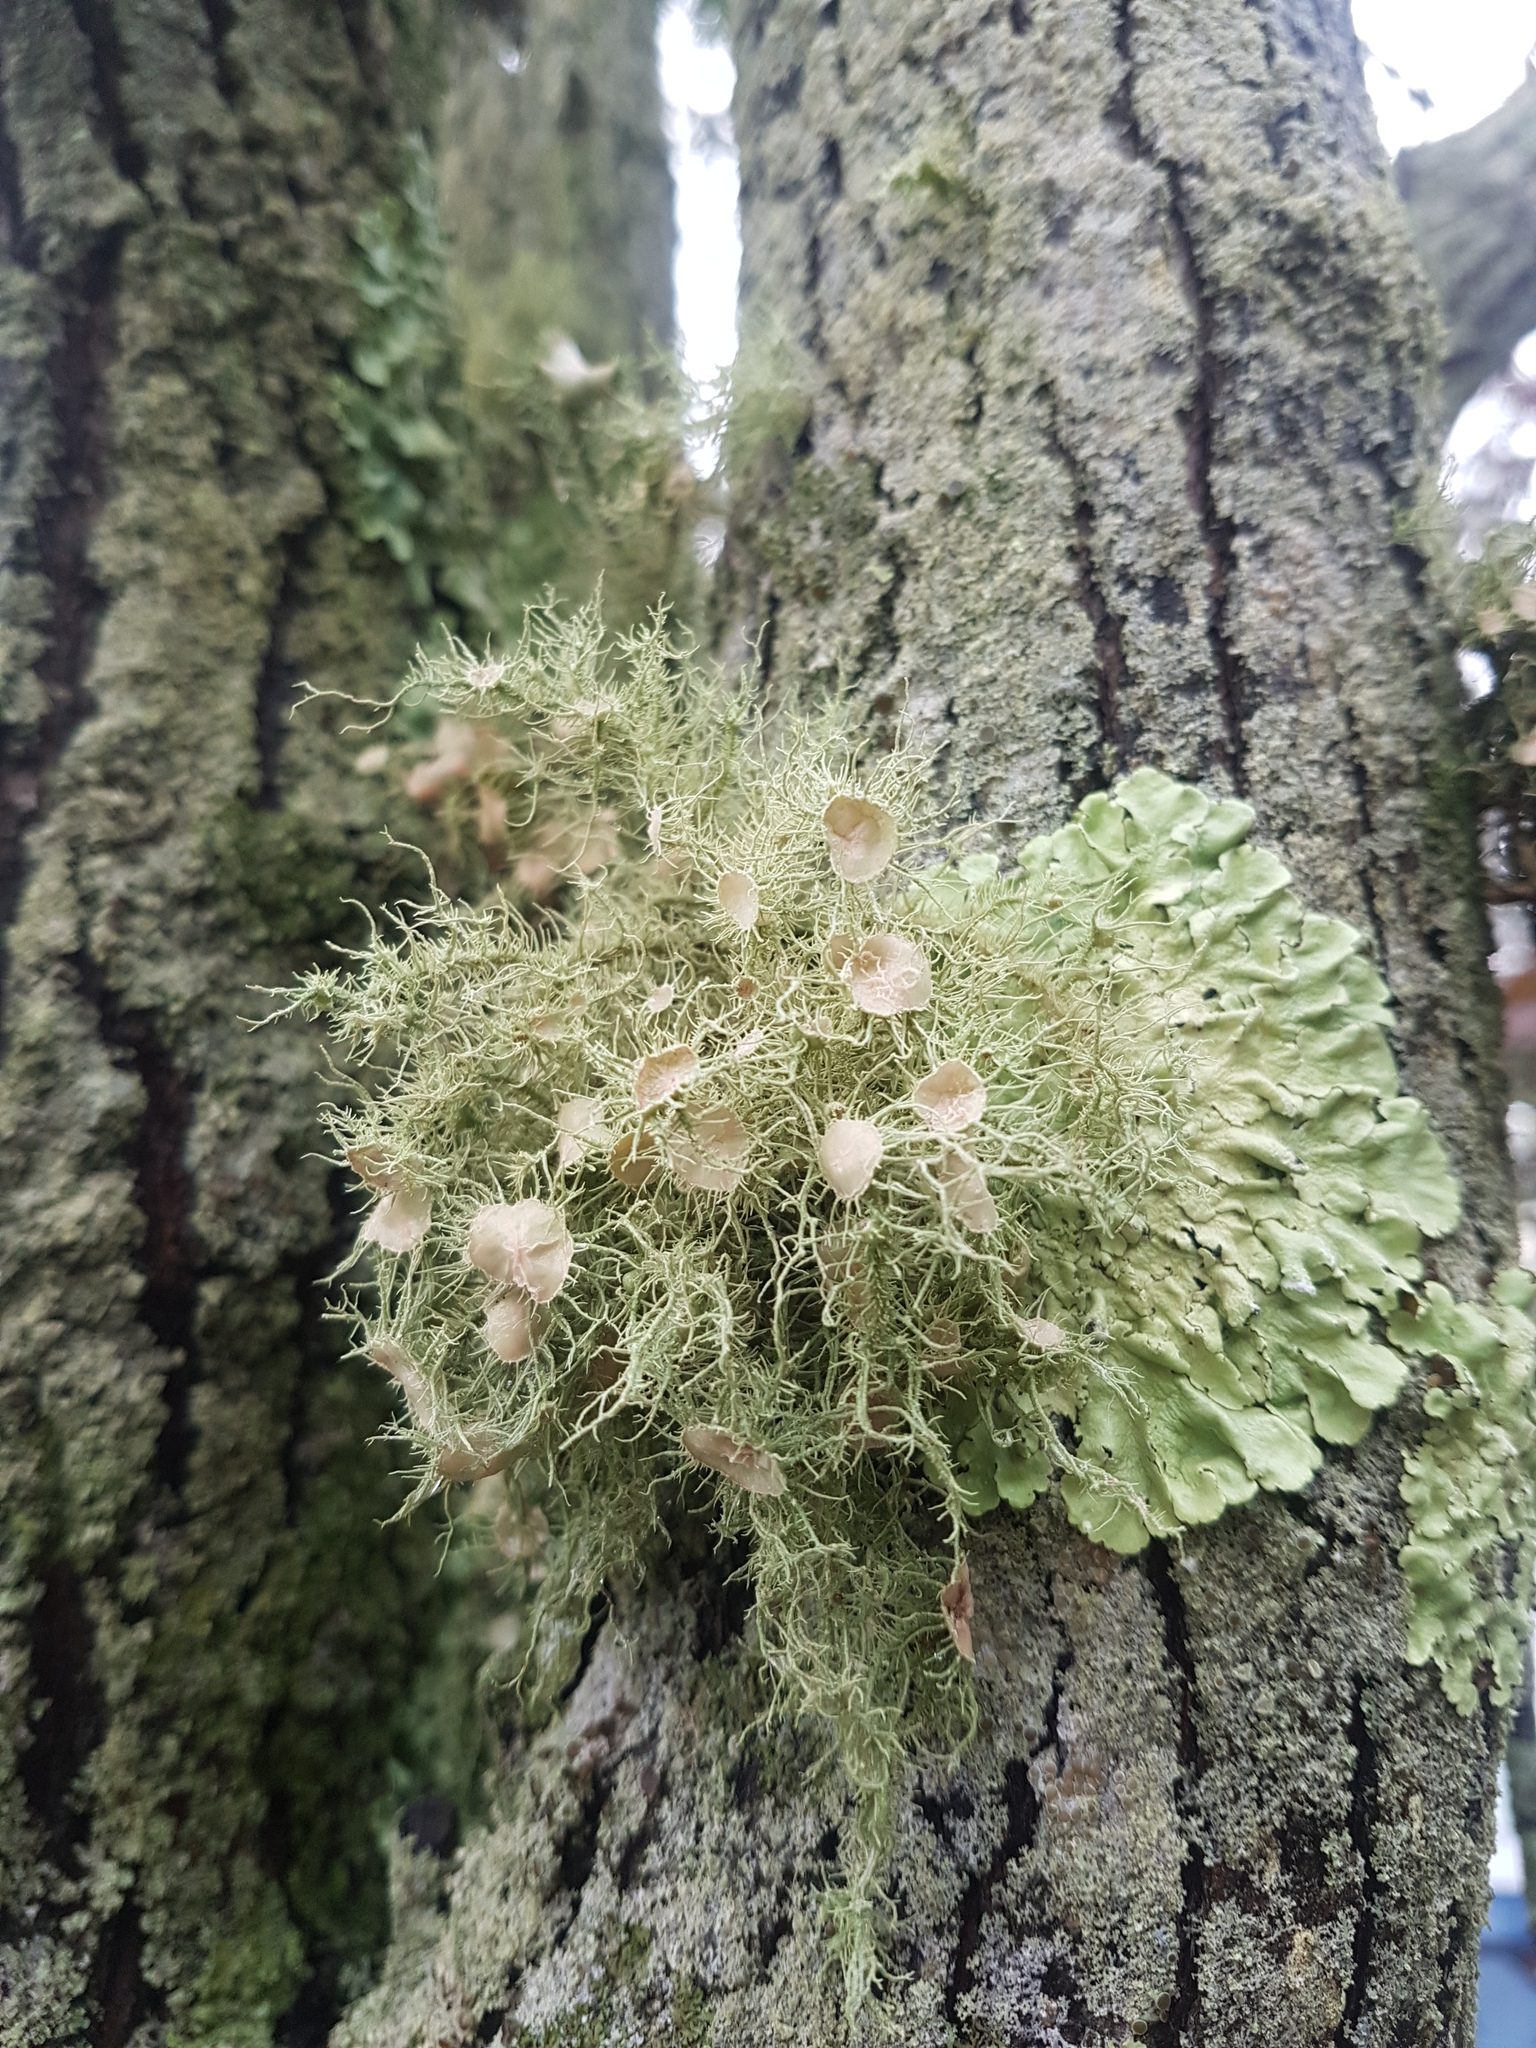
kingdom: Fungi
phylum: Ascomycota
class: Lecanoromycetes
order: Lecanorales
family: Parmeliaceae
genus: Usnea
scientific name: Usnea strigosa
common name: Bushy beard lichen
